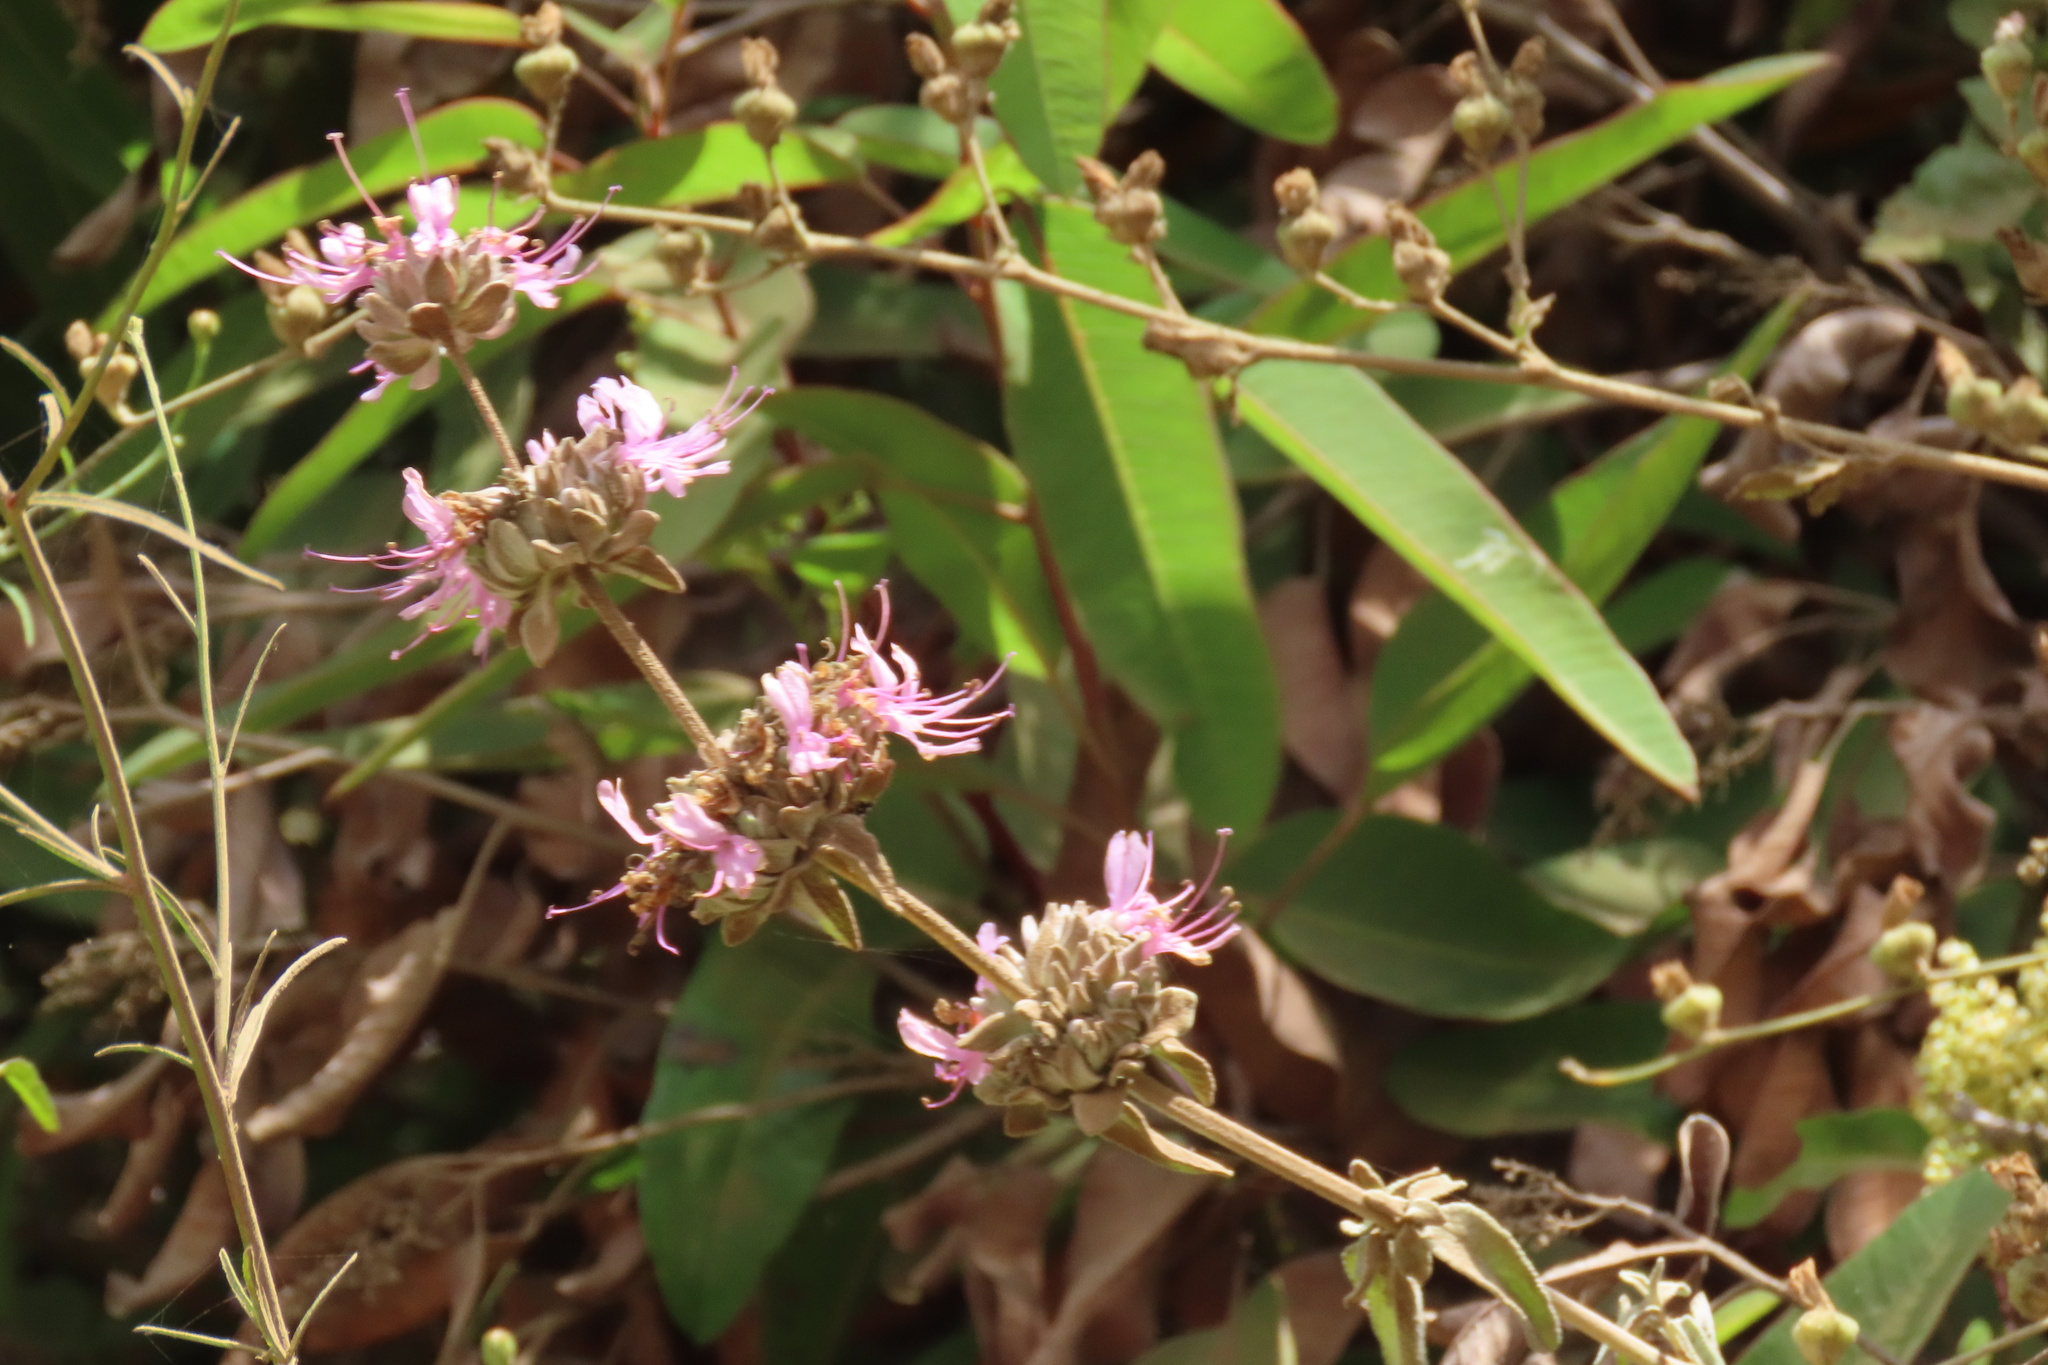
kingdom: Plantae
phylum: Tracheophyta
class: Magnoliopsida
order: Lamiales
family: Lamiaceae
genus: Salvia
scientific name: Salvia leucophylla
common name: Purple sage
